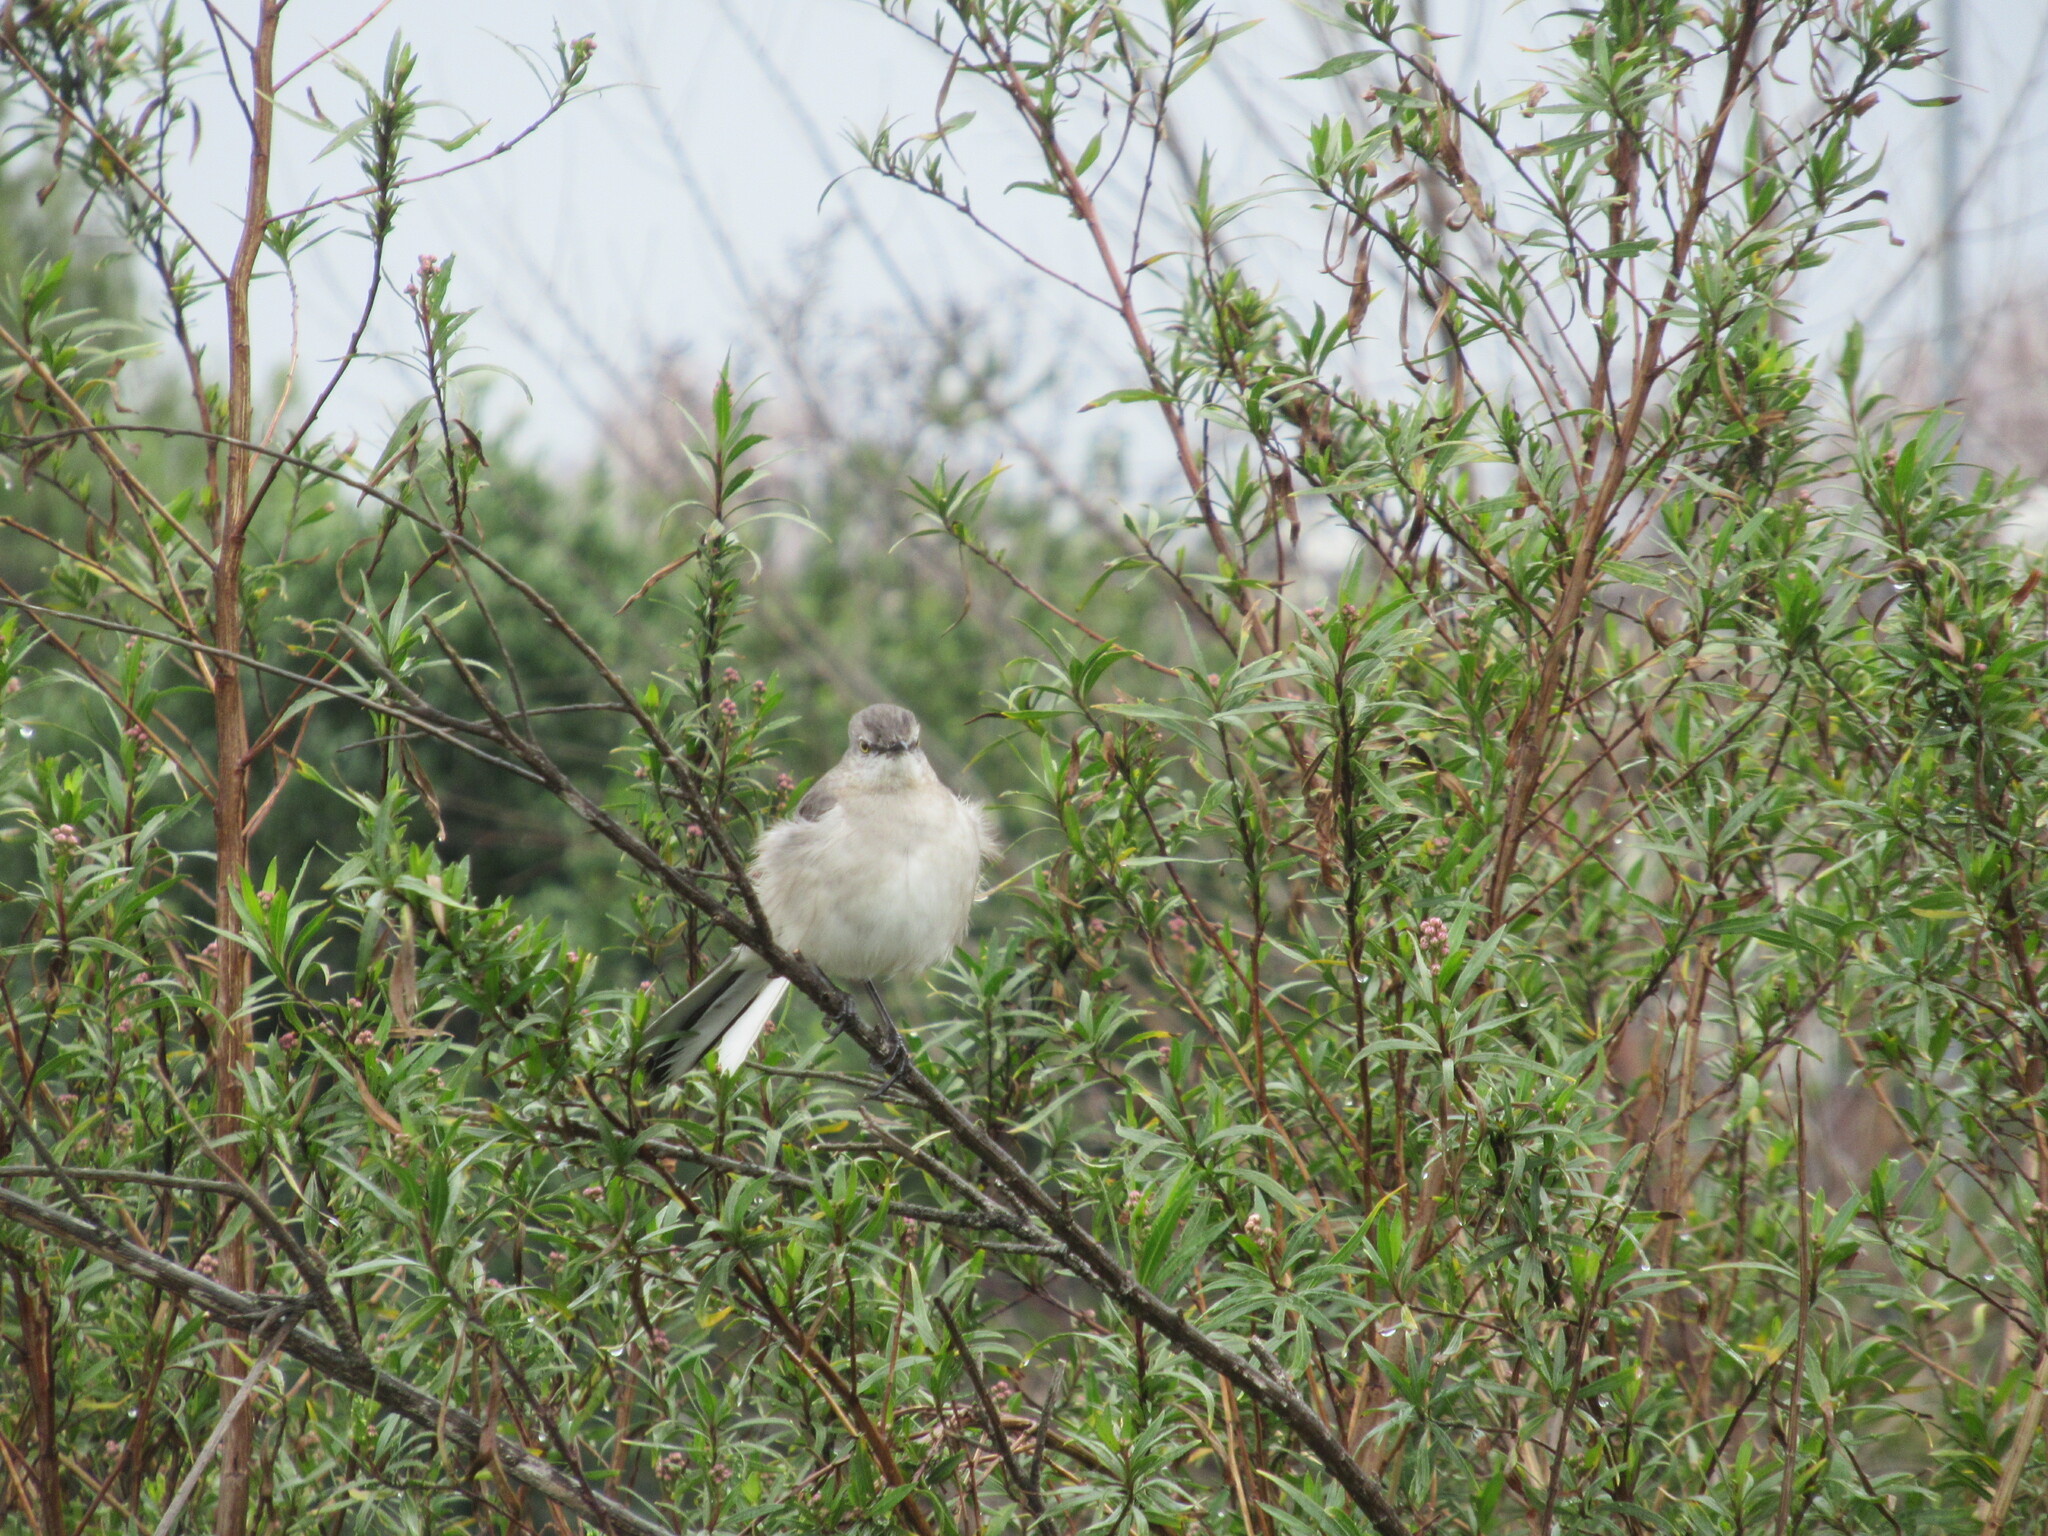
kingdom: Animalia
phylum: Chordata
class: Aves
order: Passeriformes
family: Mimidae
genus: Mimus
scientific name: Mimus polyglottos
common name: Northern mockingbird
